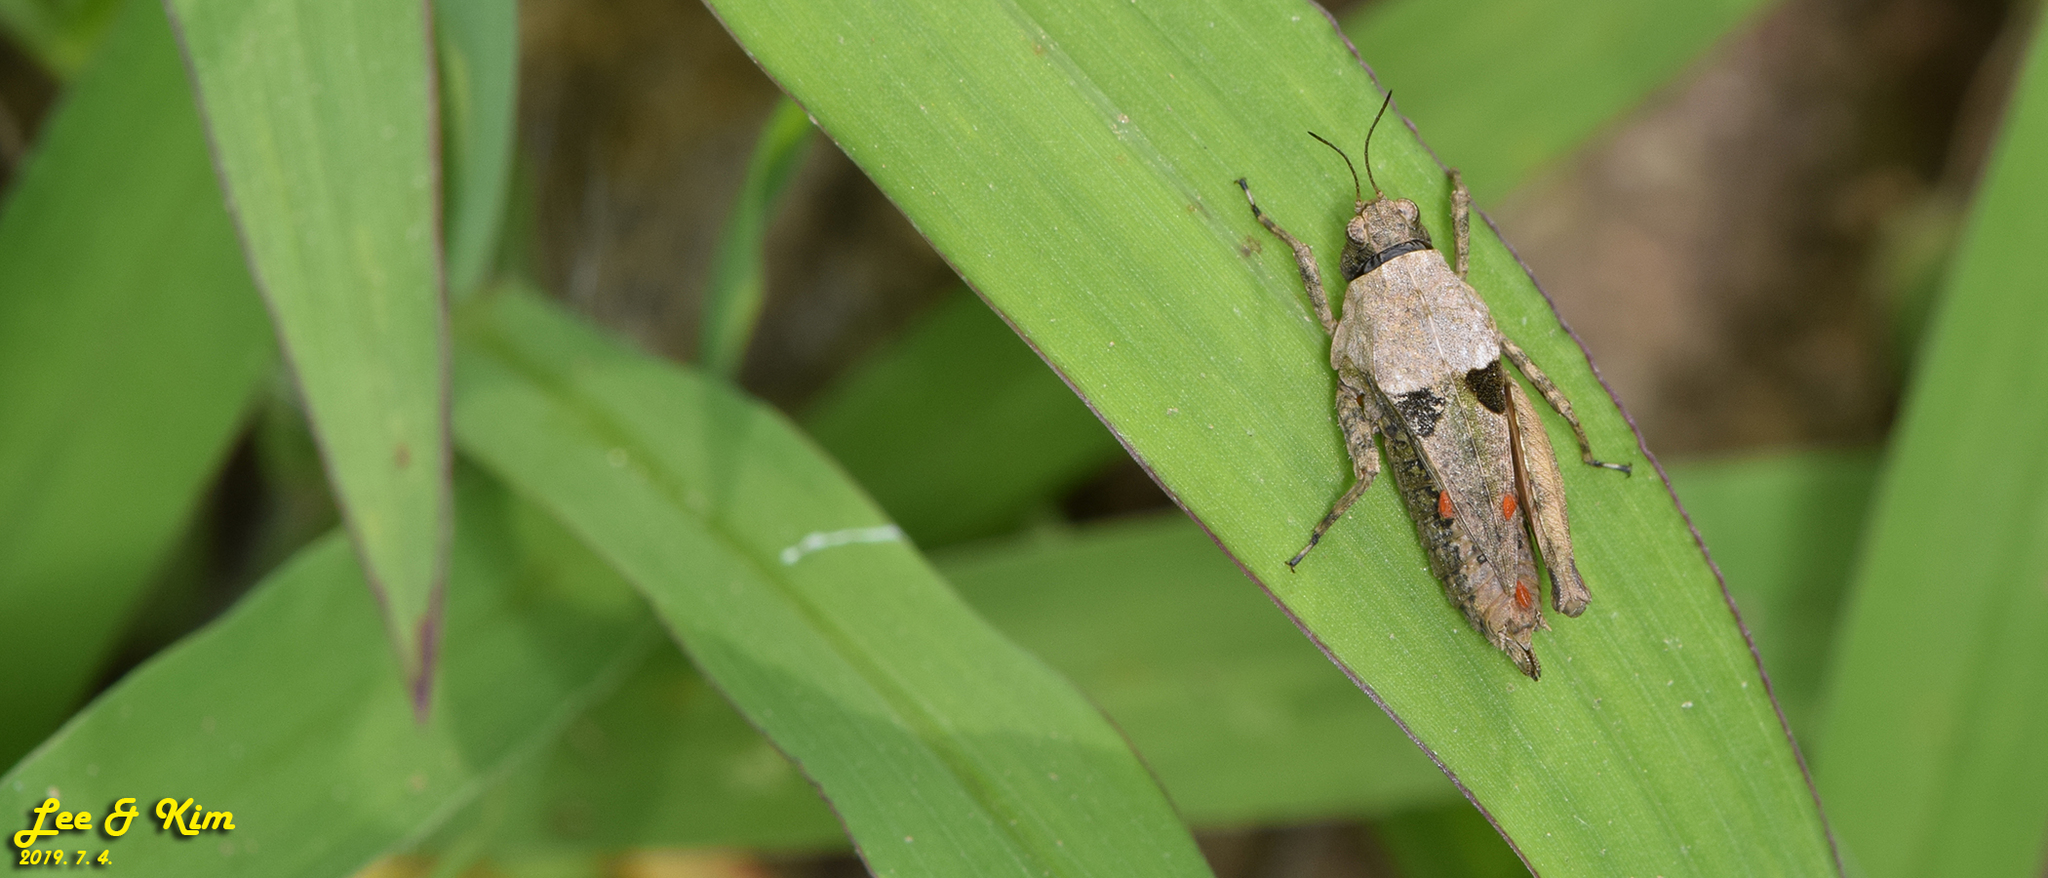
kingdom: Animalia
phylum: Arthropoda
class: Insecta
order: Orthoptera
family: Tetrigidae
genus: Tetrix
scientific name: Tetrix japonica
